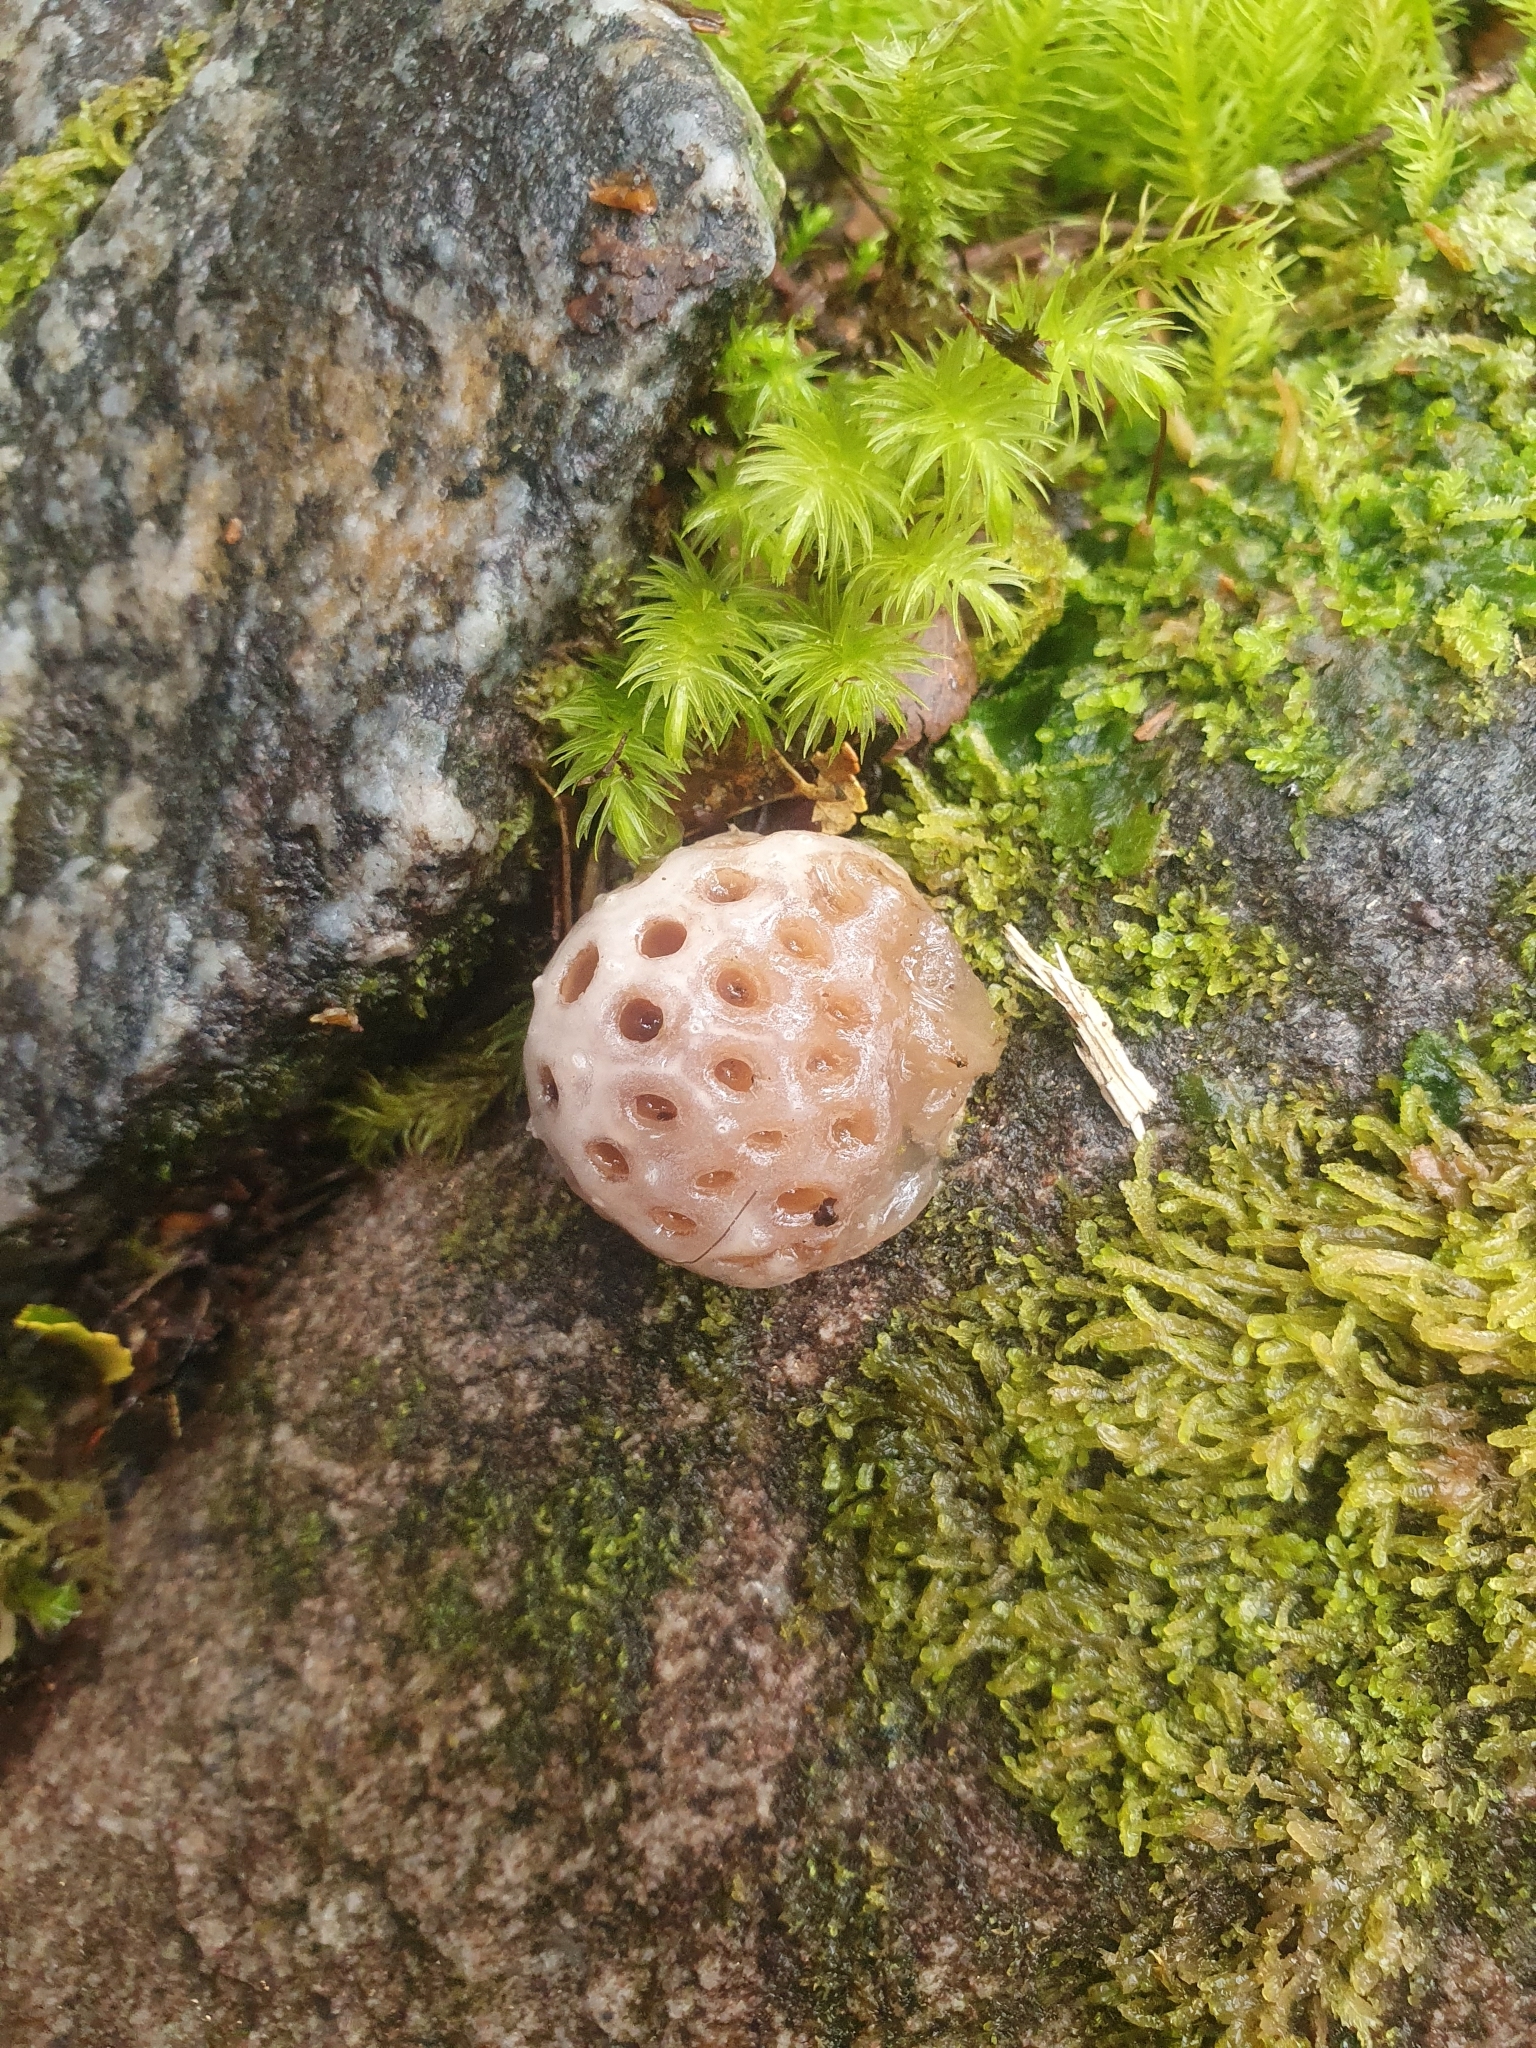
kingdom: Fungi
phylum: Ascomycota
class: Leotiomycetes
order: Cyttariales
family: Cyttariaceae
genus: Cyttaria
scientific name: Cyttaria pallida
